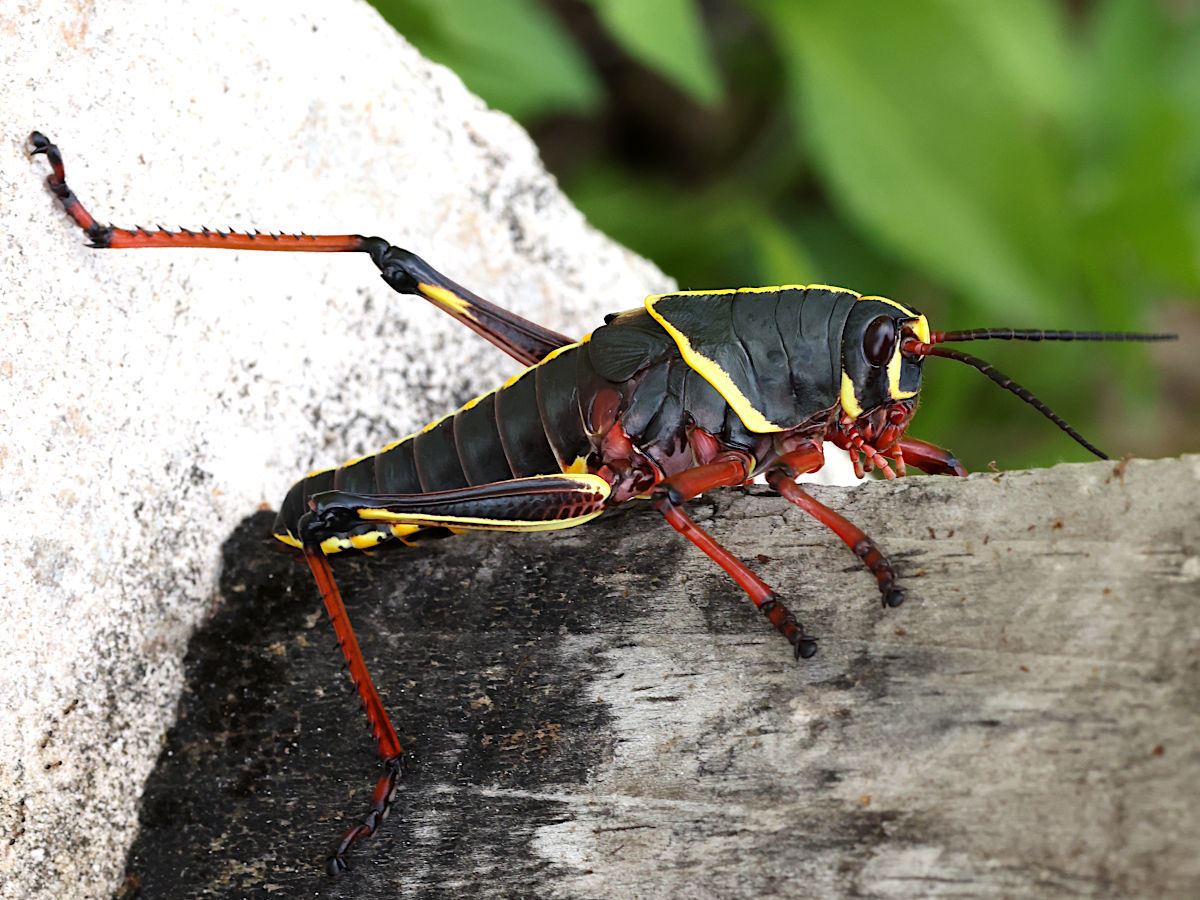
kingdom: Animalia
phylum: Arthropoda
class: Insecta
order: Orthoptera
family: Romaleidae
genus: Romalea
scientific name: Romalea microptera
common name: Eastern lubber grasshopper
